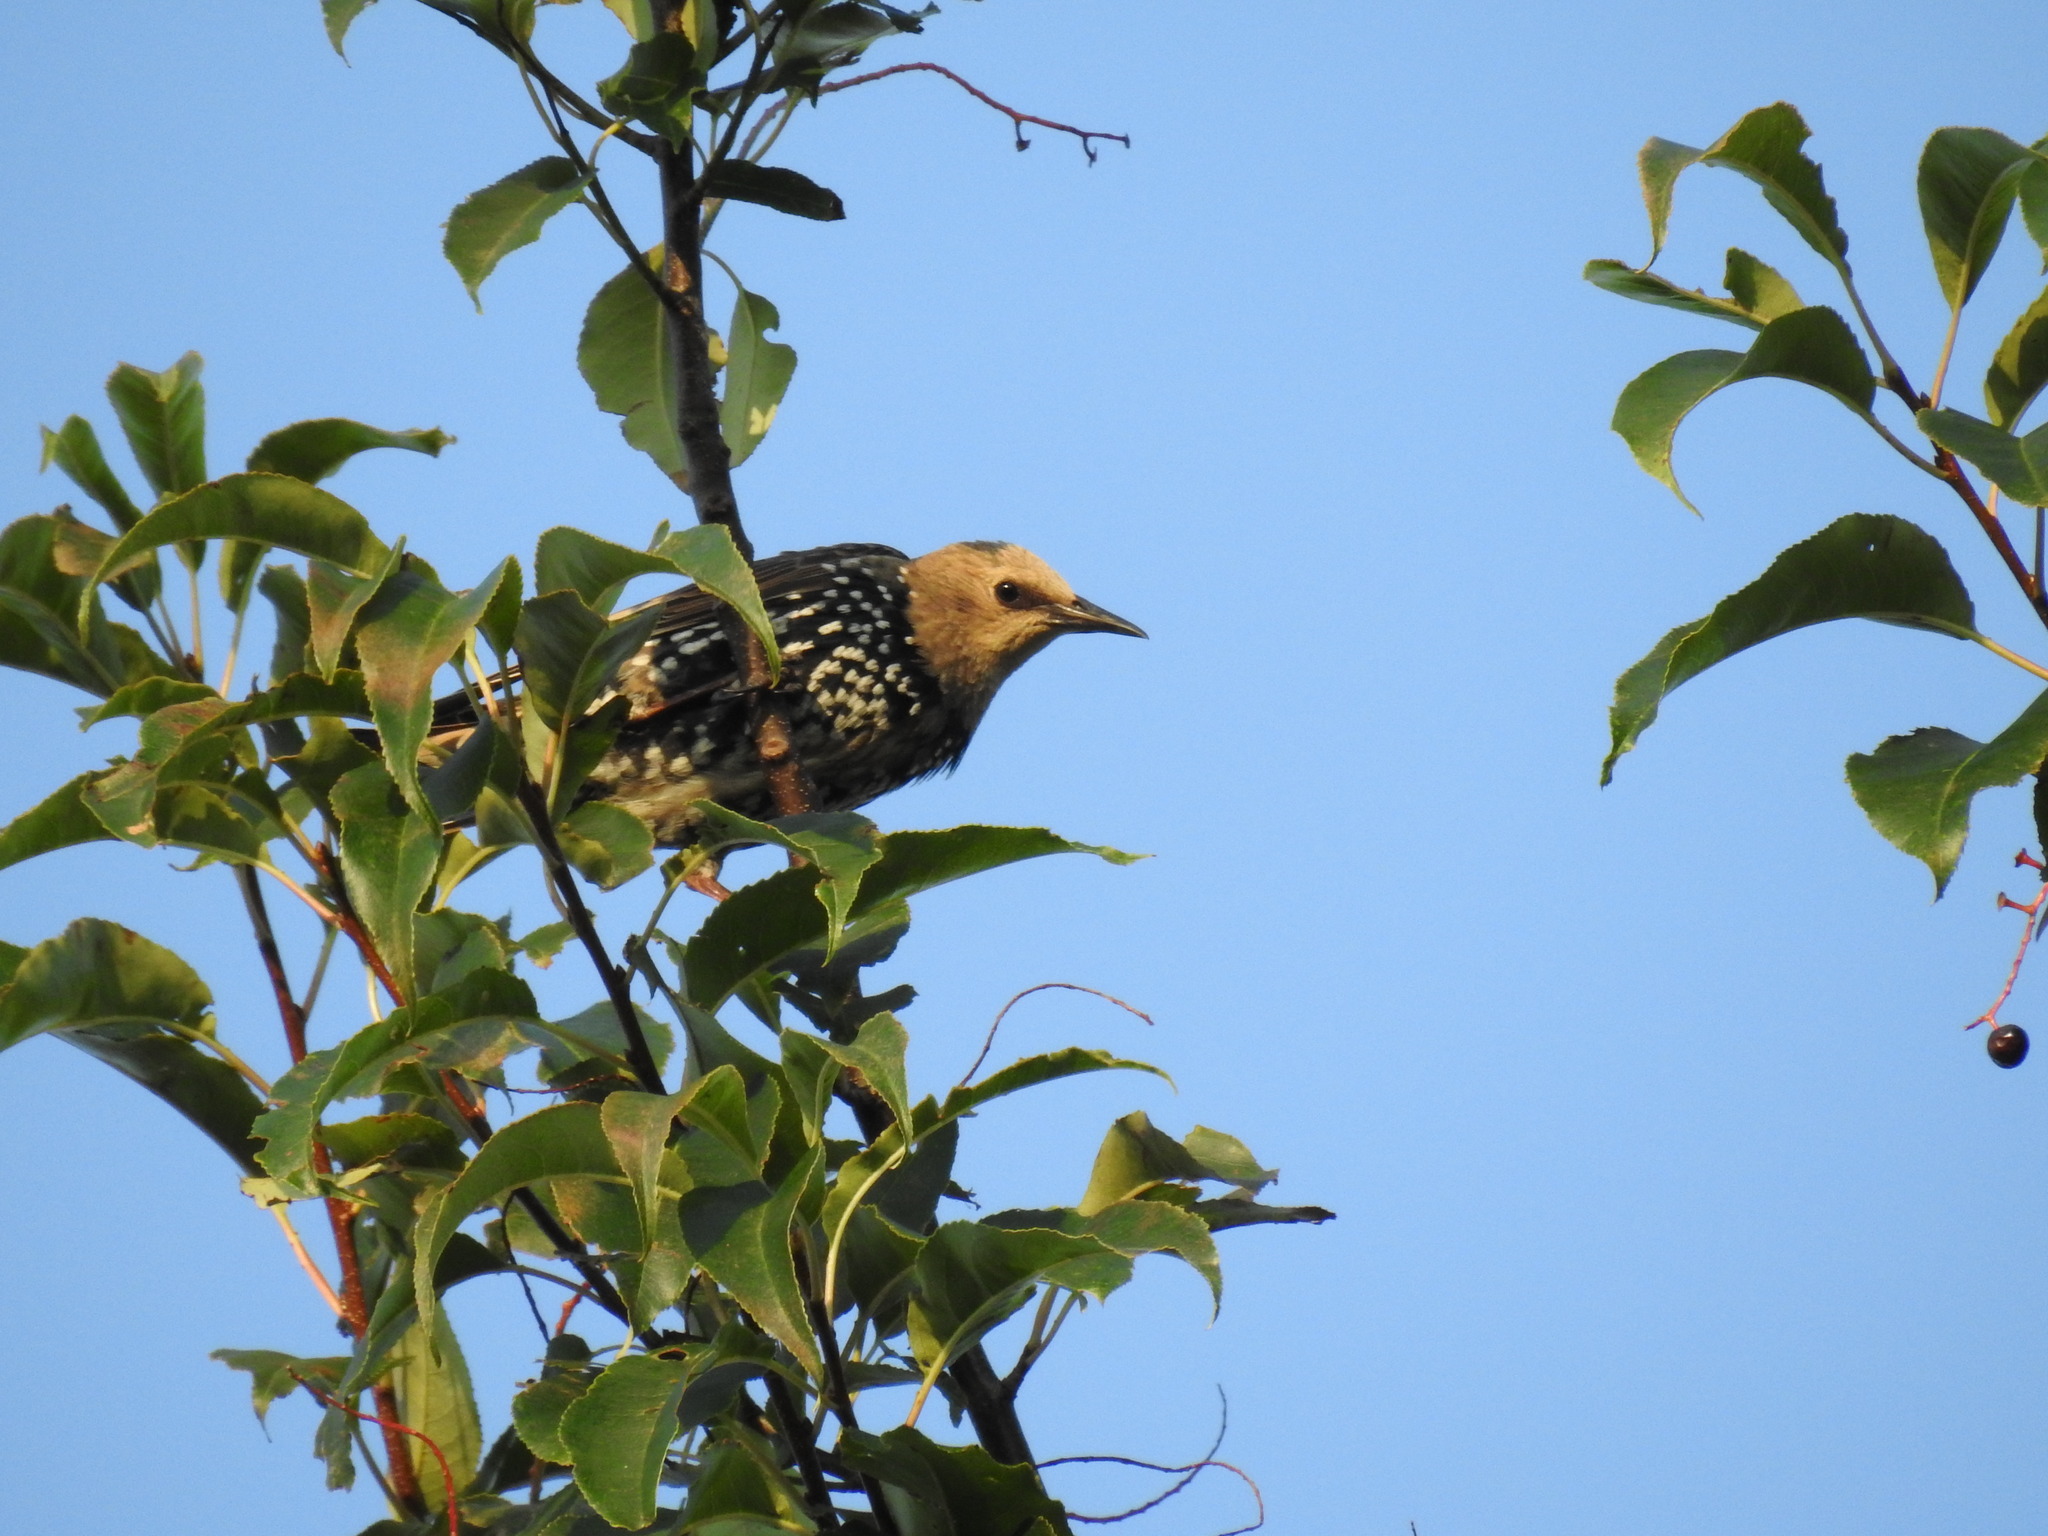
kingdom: Animalia
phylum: Chordata
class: Aves
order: Passeriformes
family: Sturnidae
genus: Sturnus
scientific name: Sturnus vulgaris
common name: Common starling
